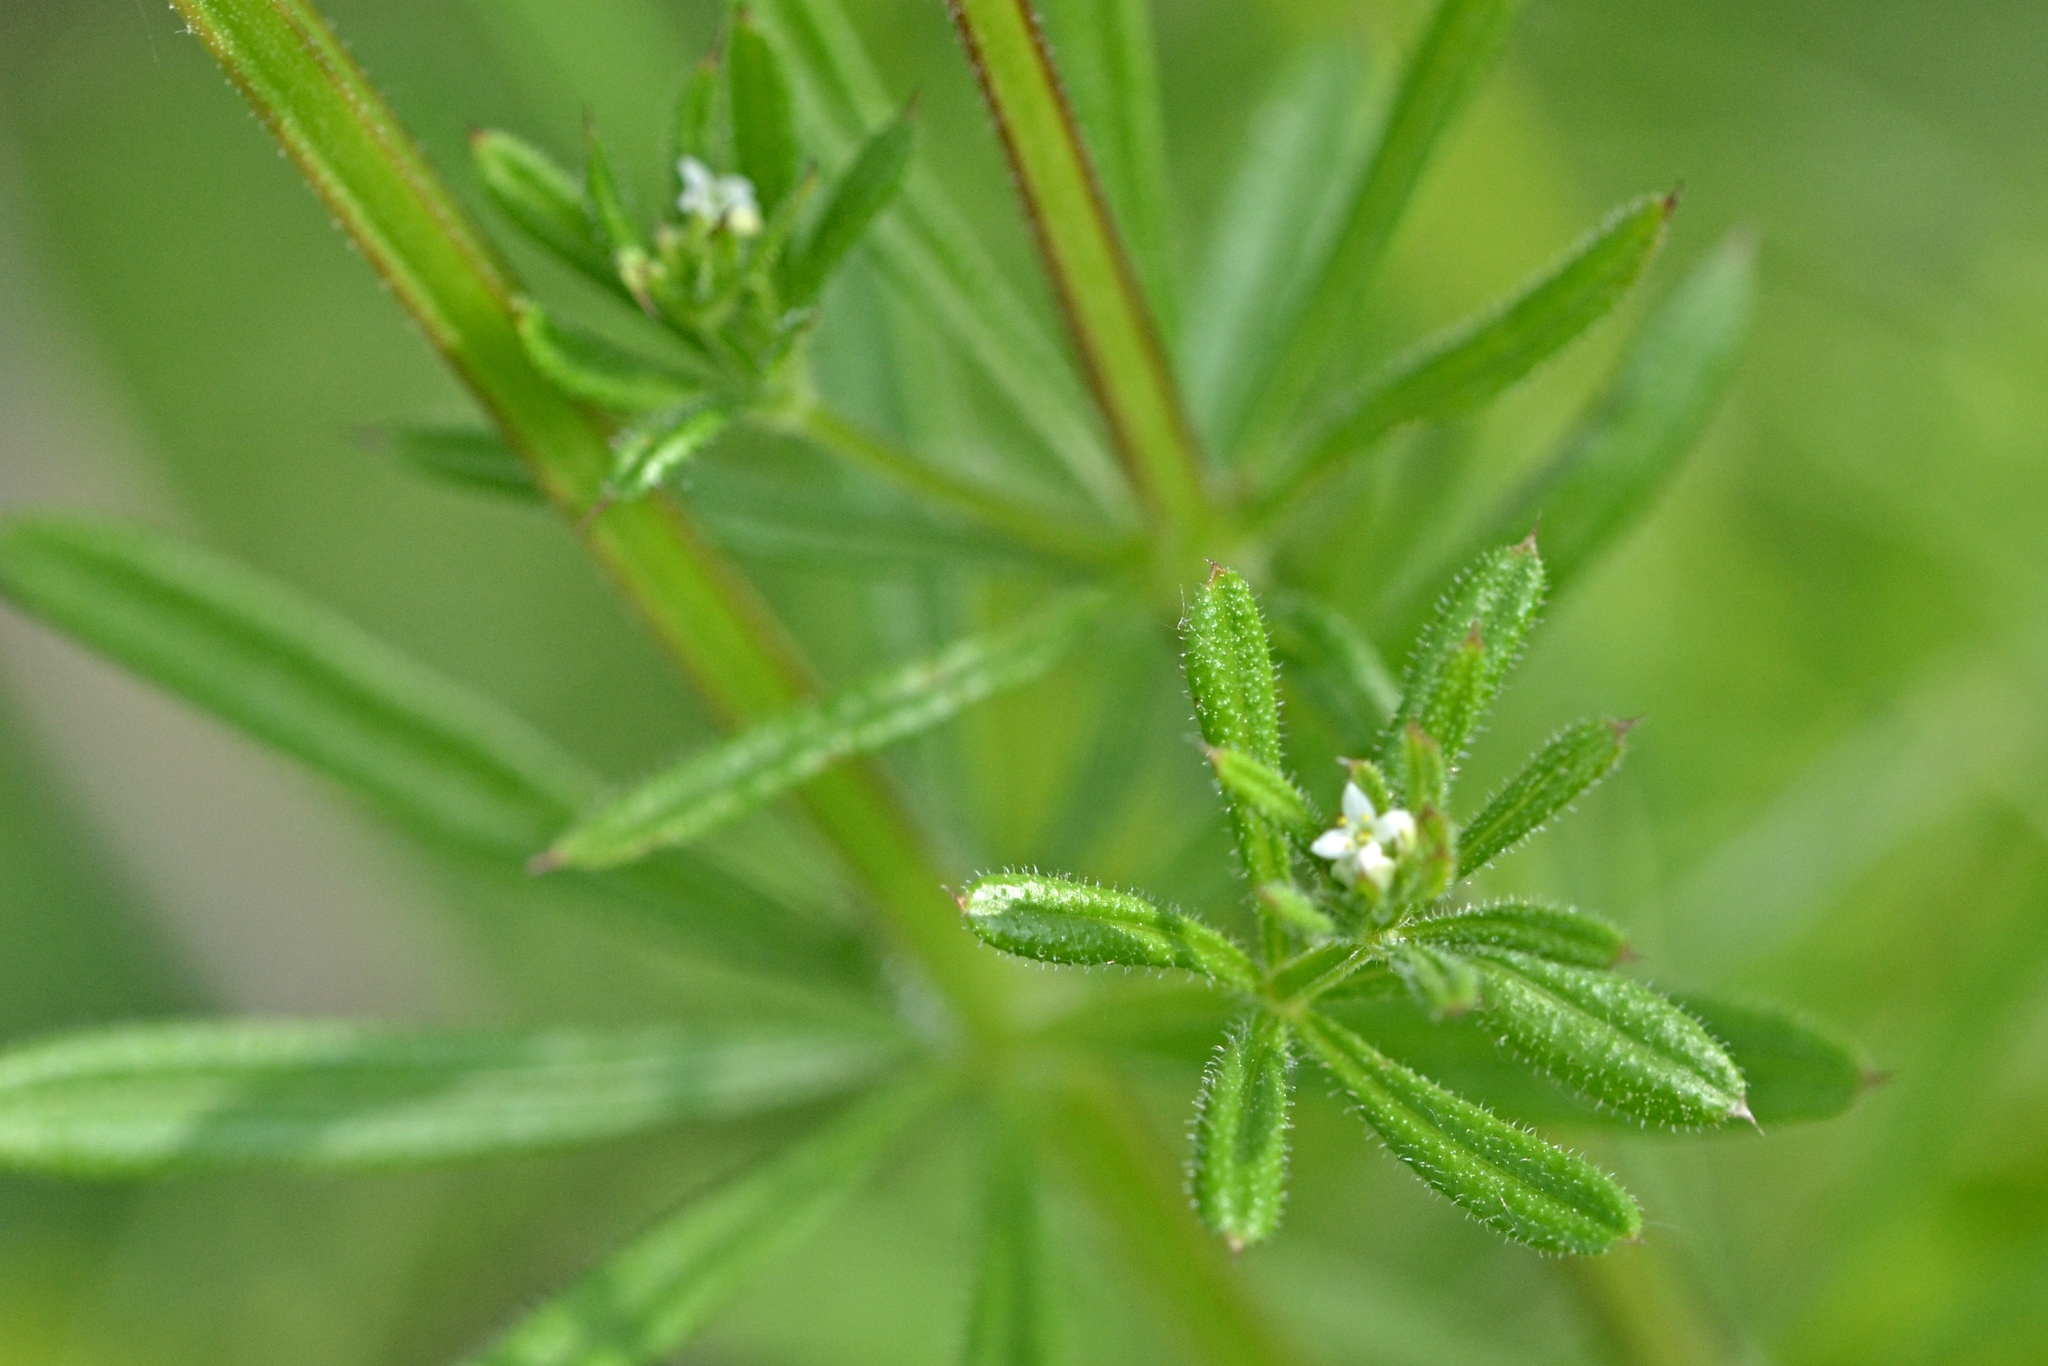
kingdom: Plantae
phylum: Tracheophyta
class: Magnoliopsida
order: Gentianales
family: Rubiaceae
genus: Galium
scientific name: Galium aparine
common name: Cleavers
